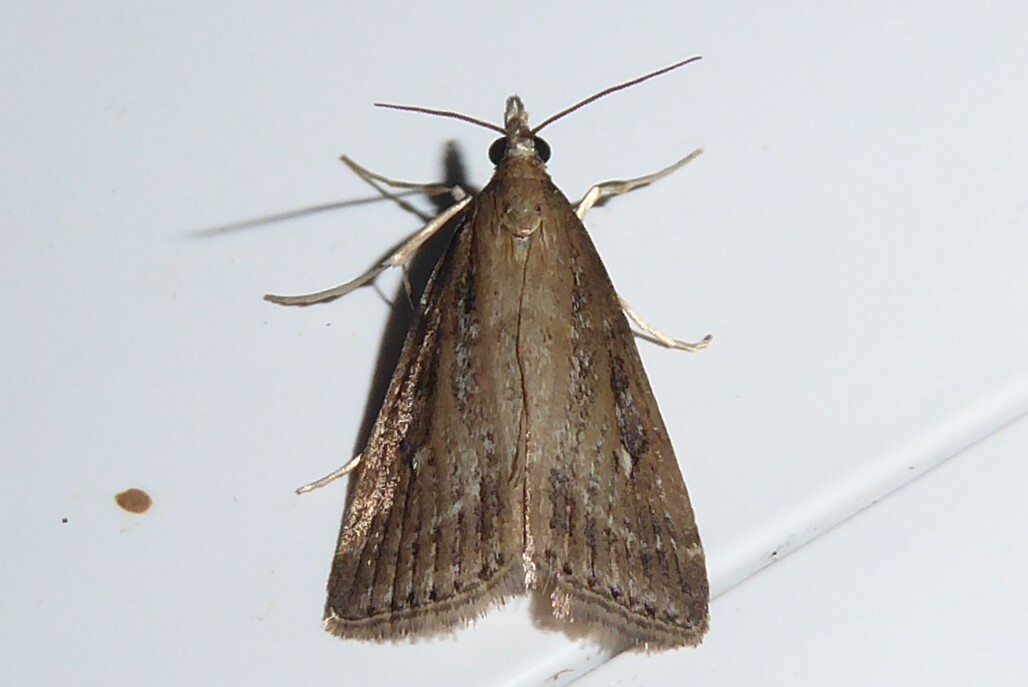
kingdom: Animalia
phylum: Arthropoda
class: Insecta
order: Lepidoptera
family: Crambidae
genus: Eudonia
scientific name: Eudonia octophora
